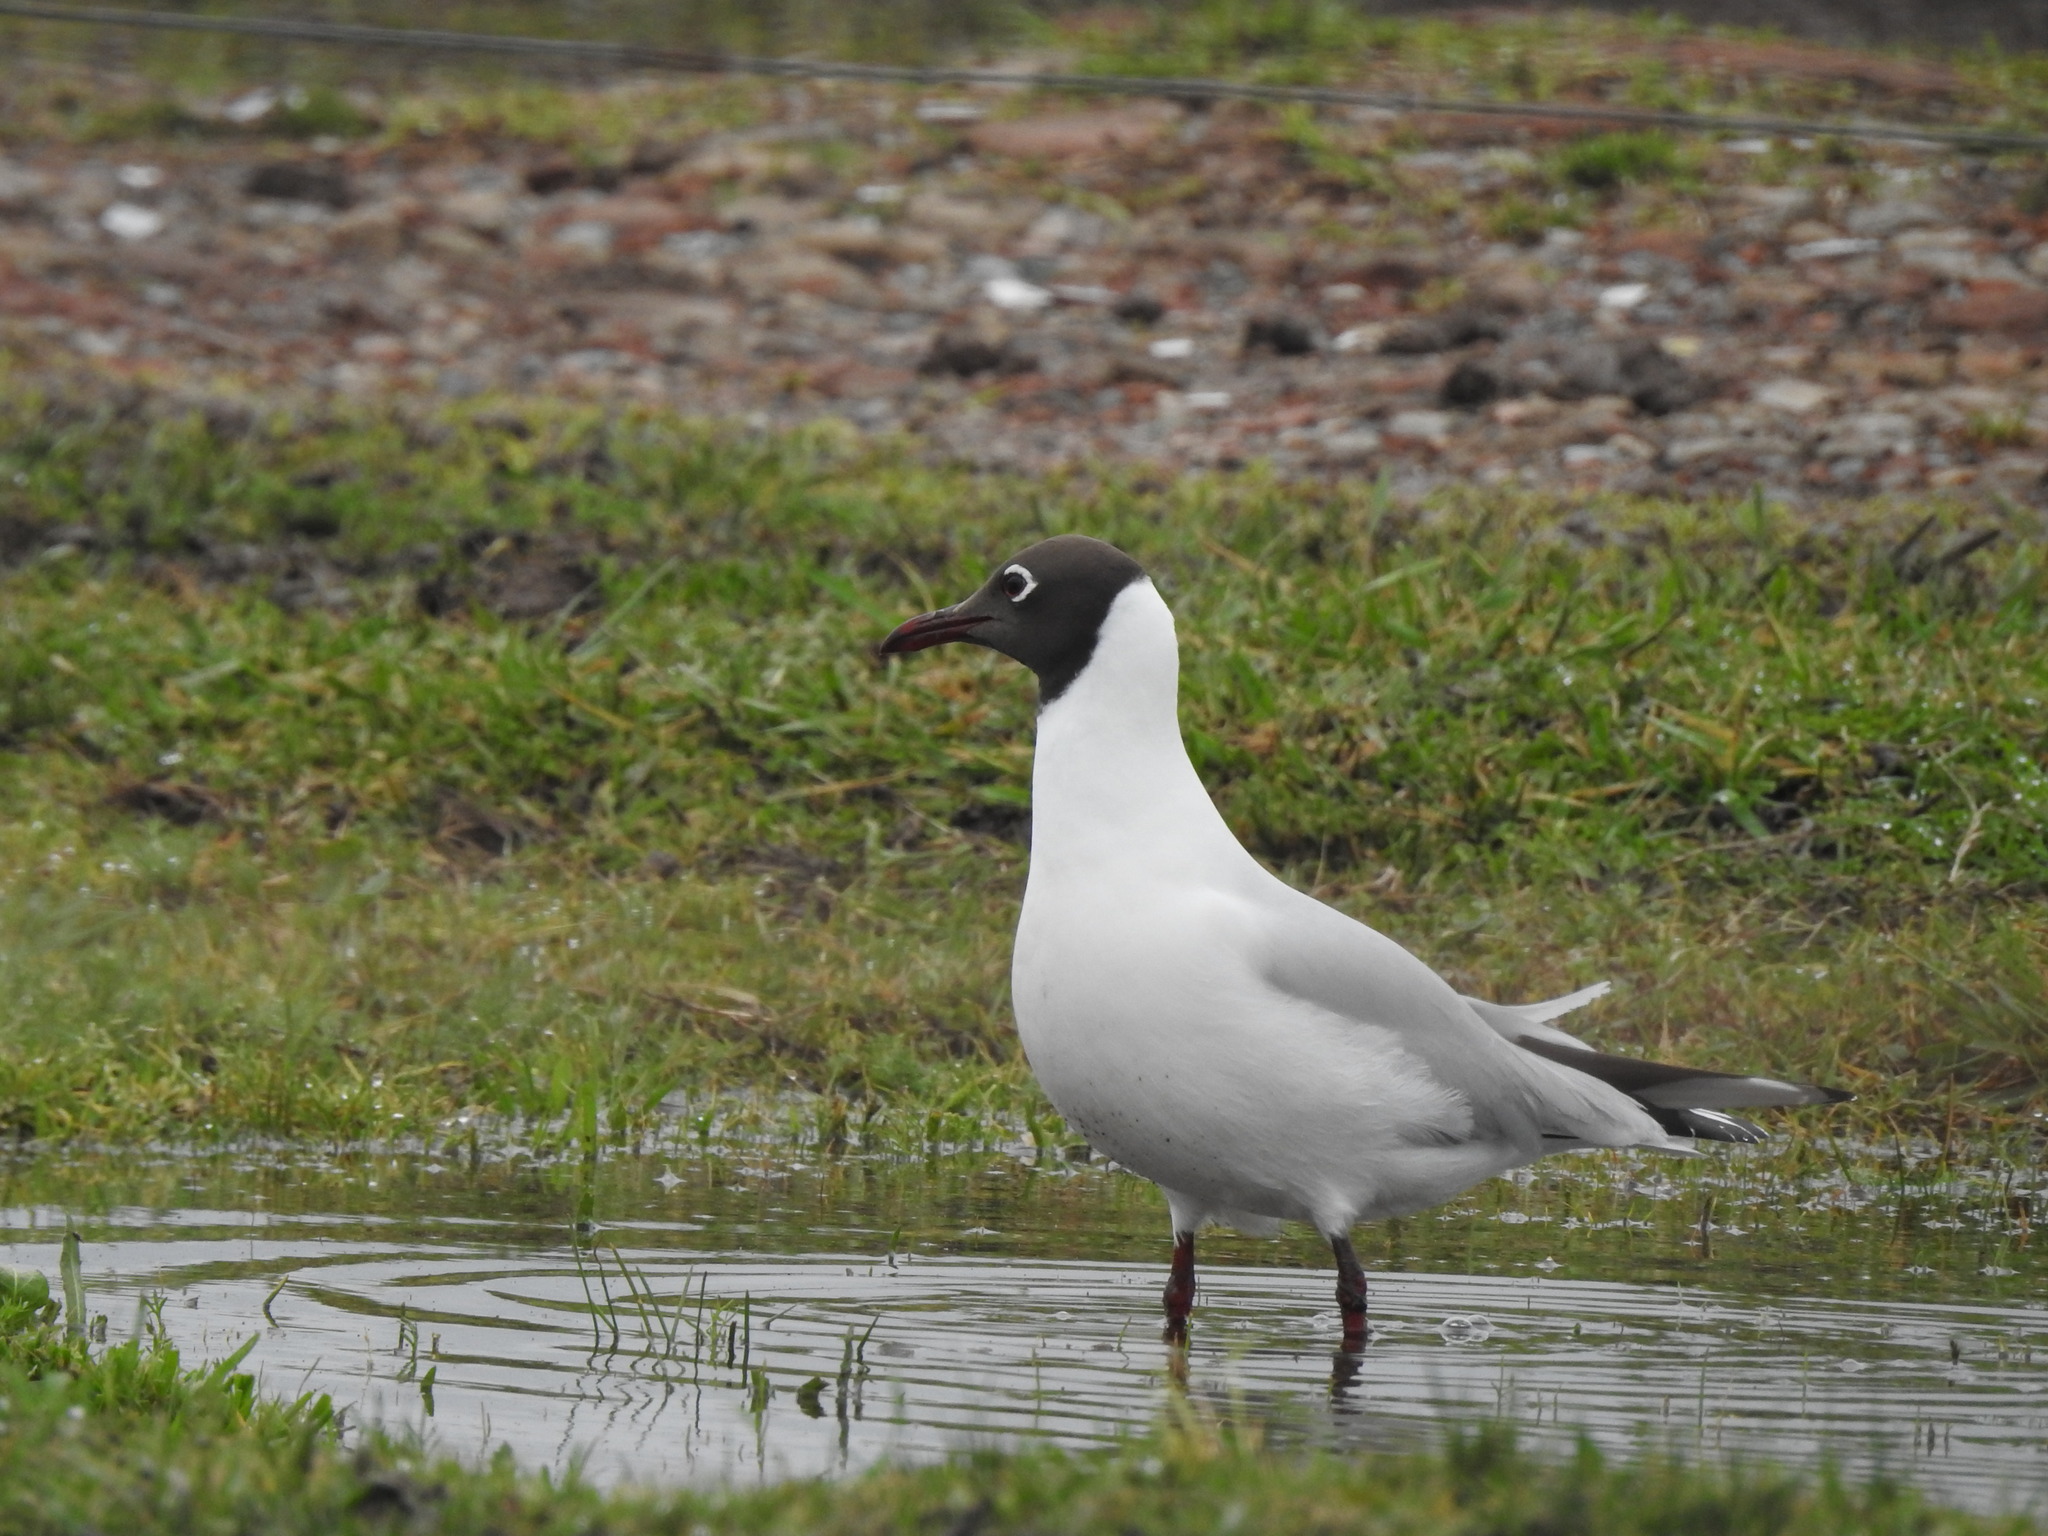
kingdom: Animalia
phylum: Chordata
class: Aves
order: Charadriiformes
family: Laridae
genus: Chroicocephalus
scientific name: Chroicocephalus maculipennis
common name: Brown-hooded gull
